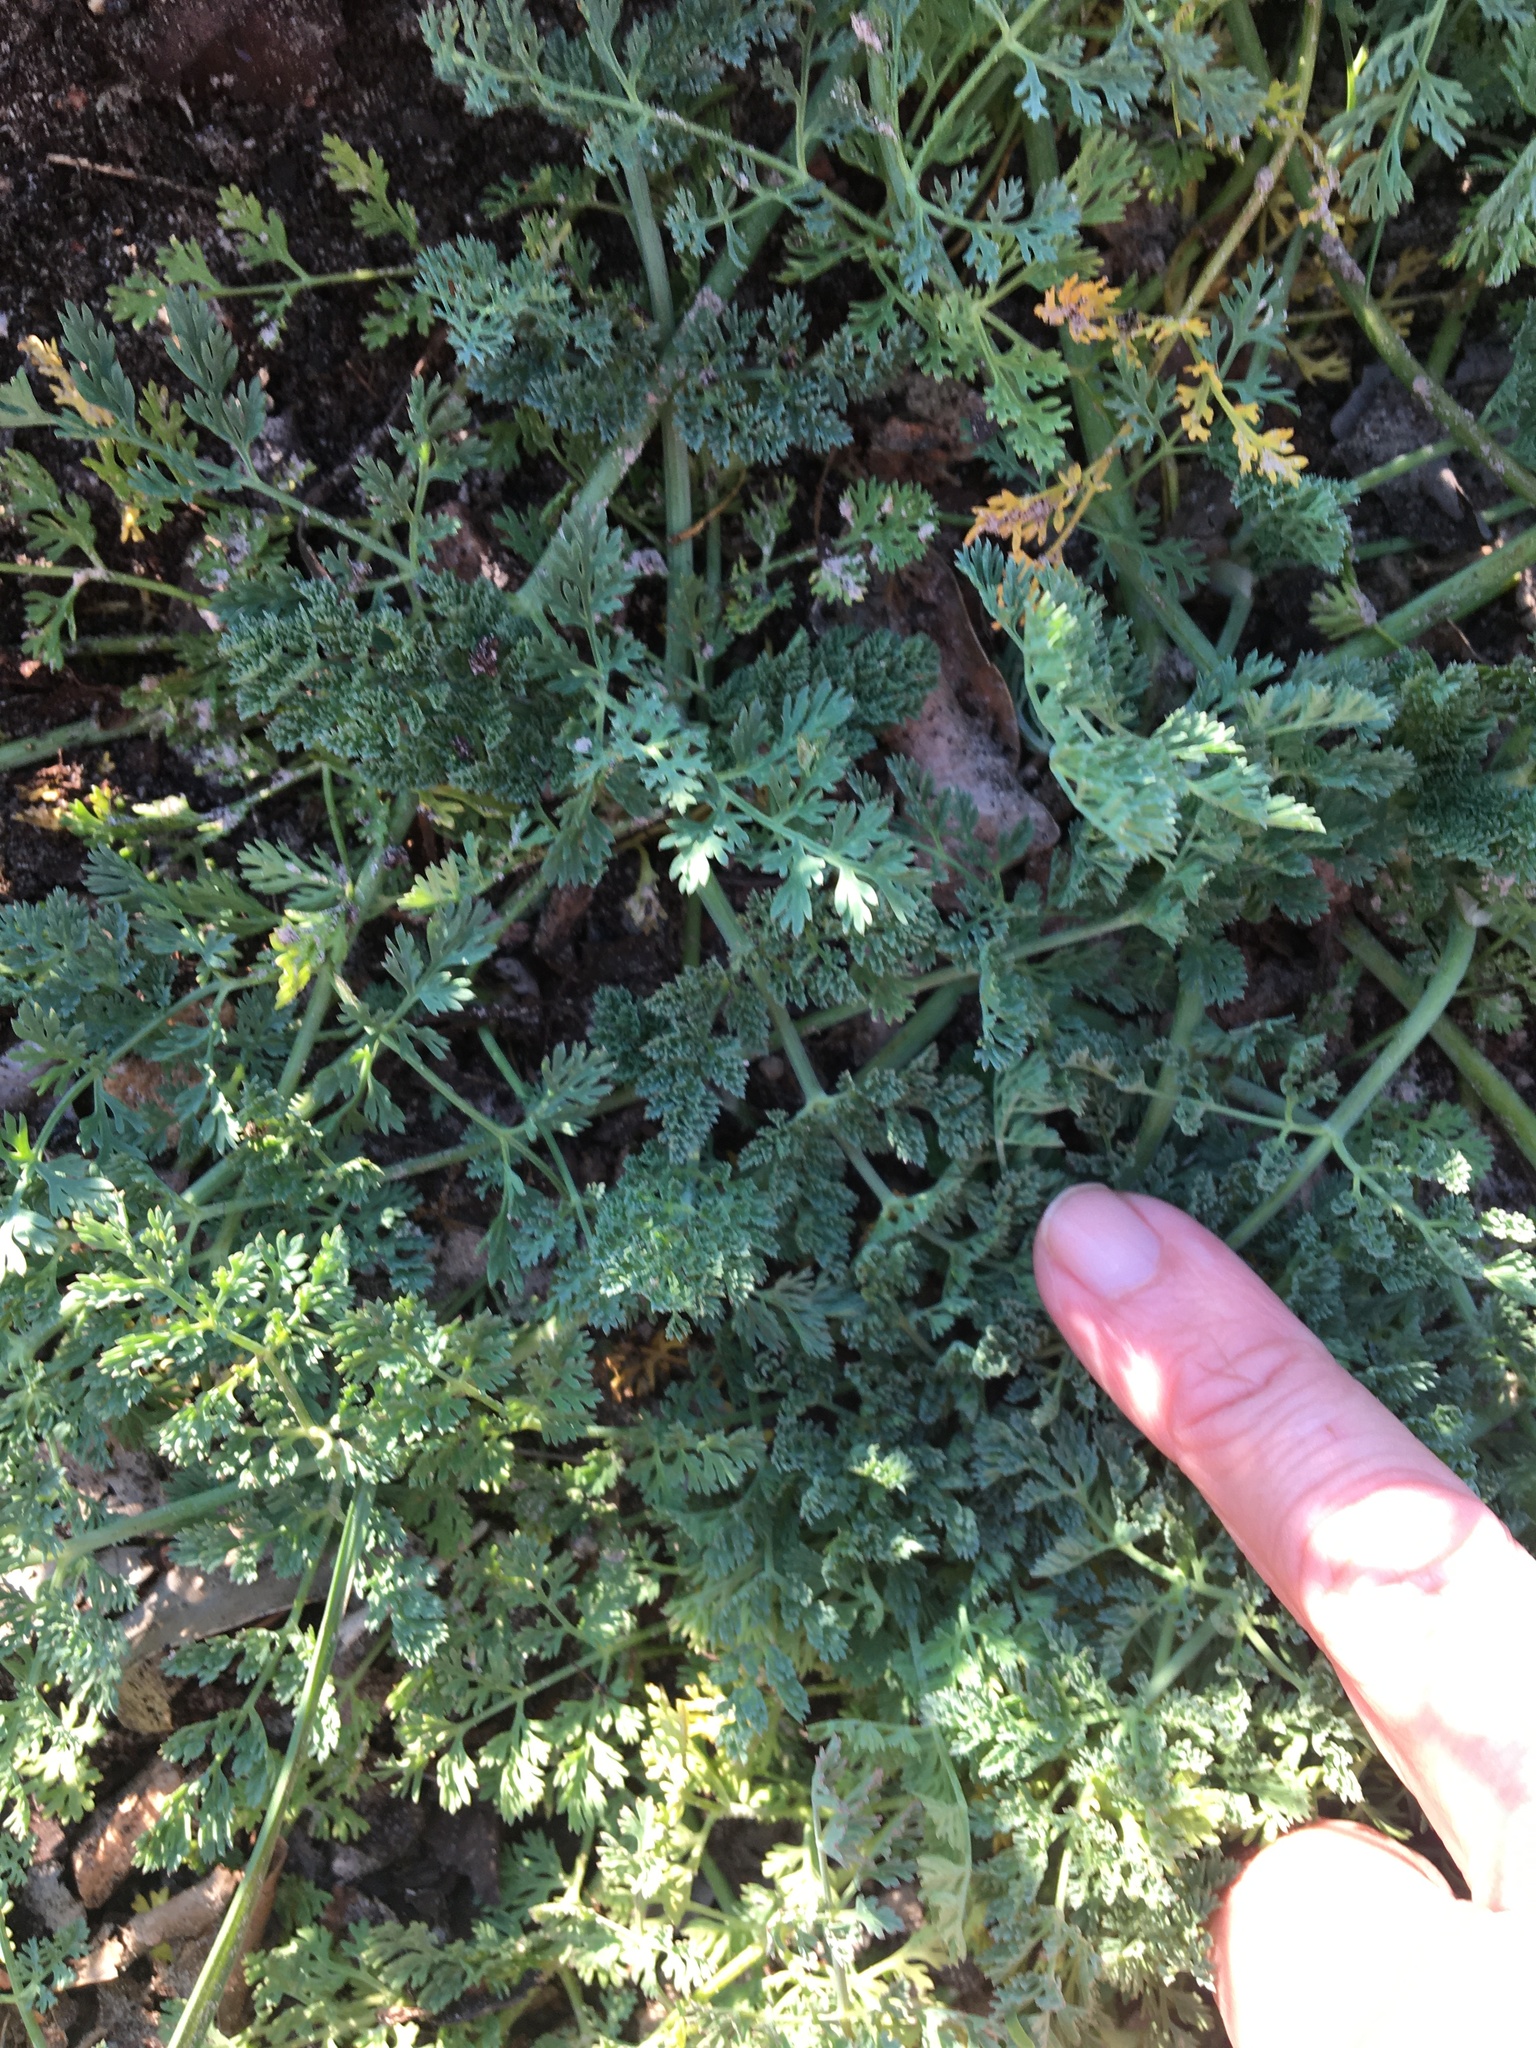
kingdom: Plantae
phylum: Tracheophyta
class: Magnoliopsida
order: Apiales
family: Apiaceae
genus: Capnophyllum
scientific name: Capnophyllum africanum
